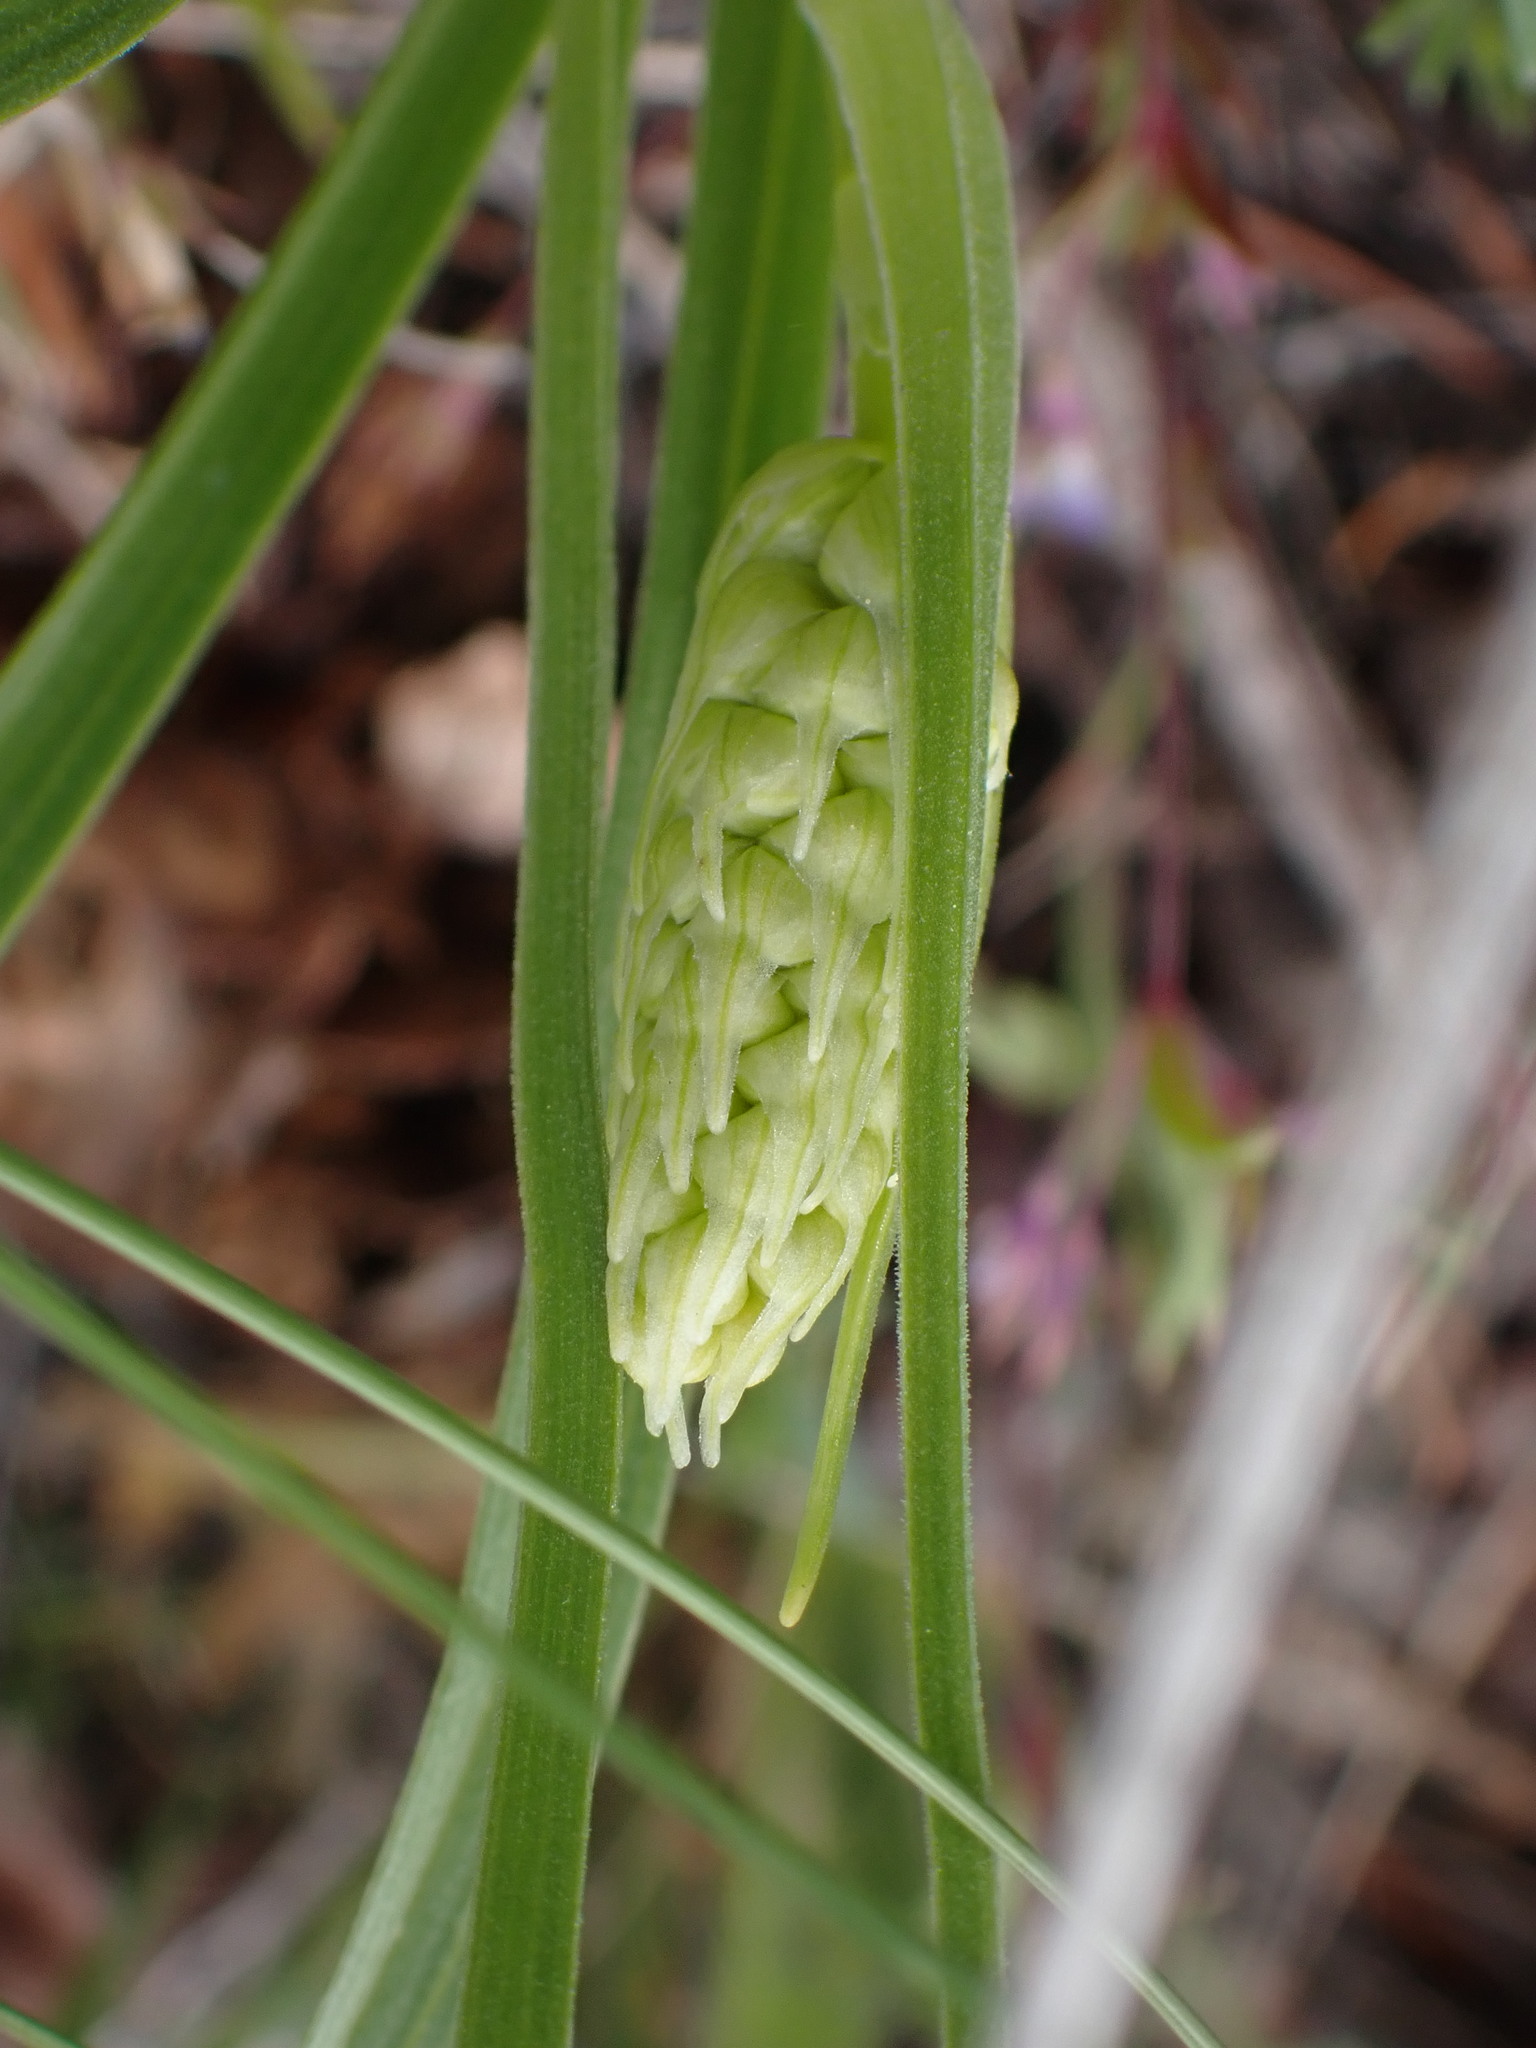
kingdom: Plantae
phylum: Tracheophyta
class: Liliopsida
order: Liliales
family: Melanthiaceae
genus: Toxicoscordion
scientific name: Toxicoscordion venenosum
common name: Meadow death camas
